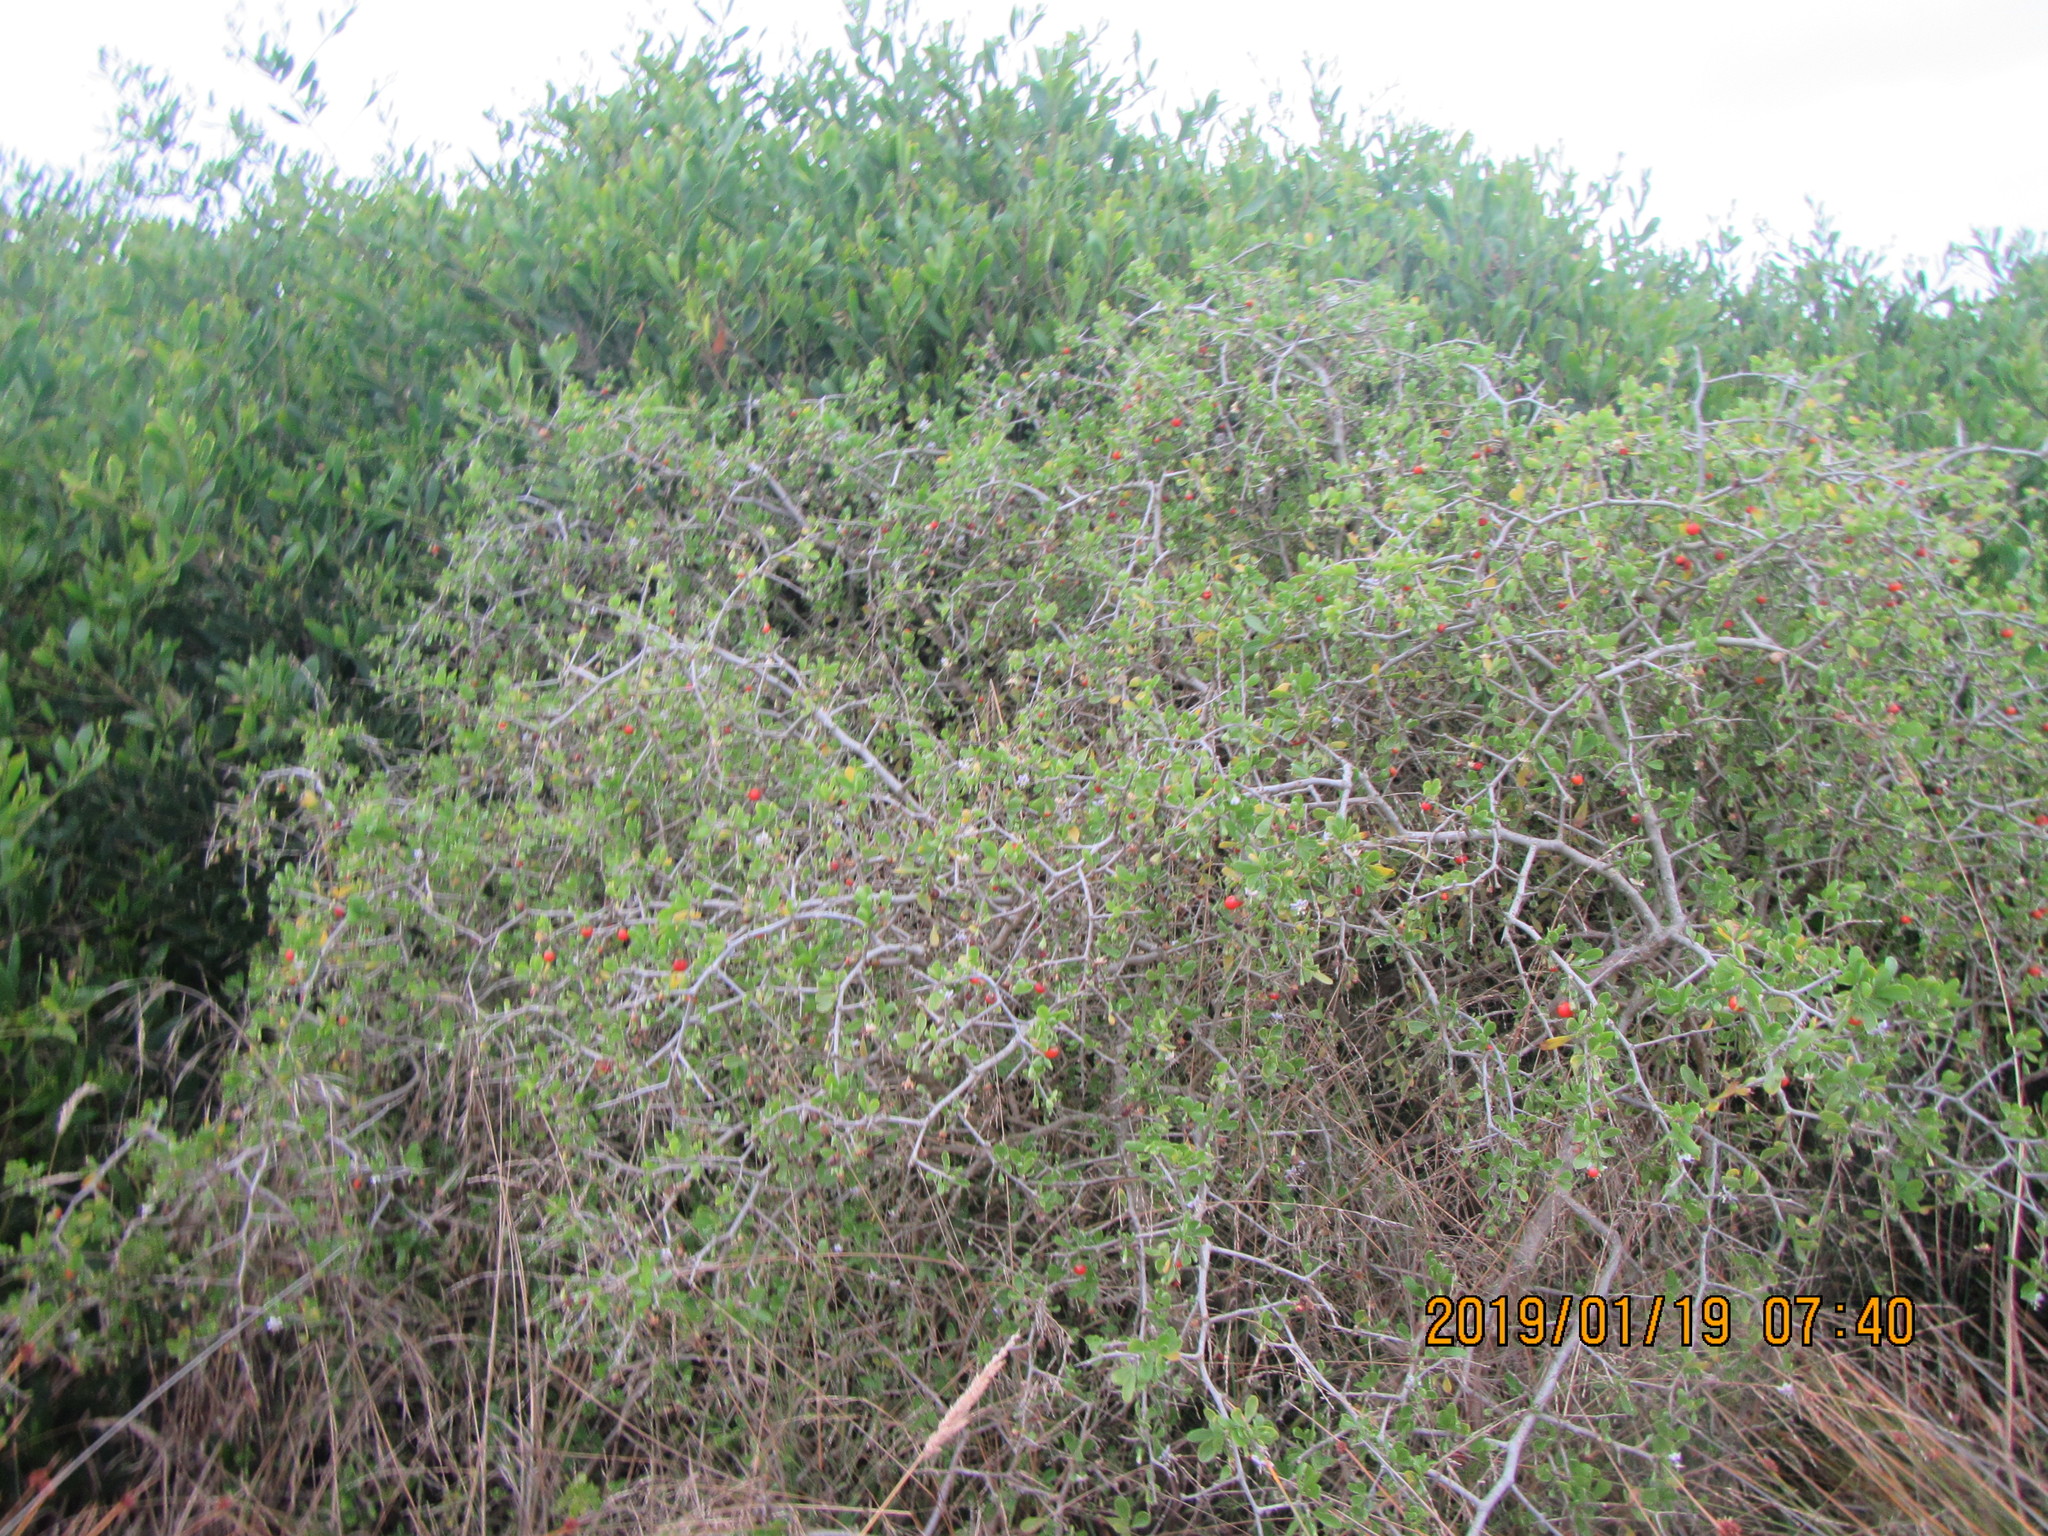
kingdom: Plantae
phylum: Tracheophyta
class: Magnoliopsida
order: Solanales
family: Solanaceae
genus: Lycium
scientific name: Lycium ferocissimum
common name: African boxthorn
